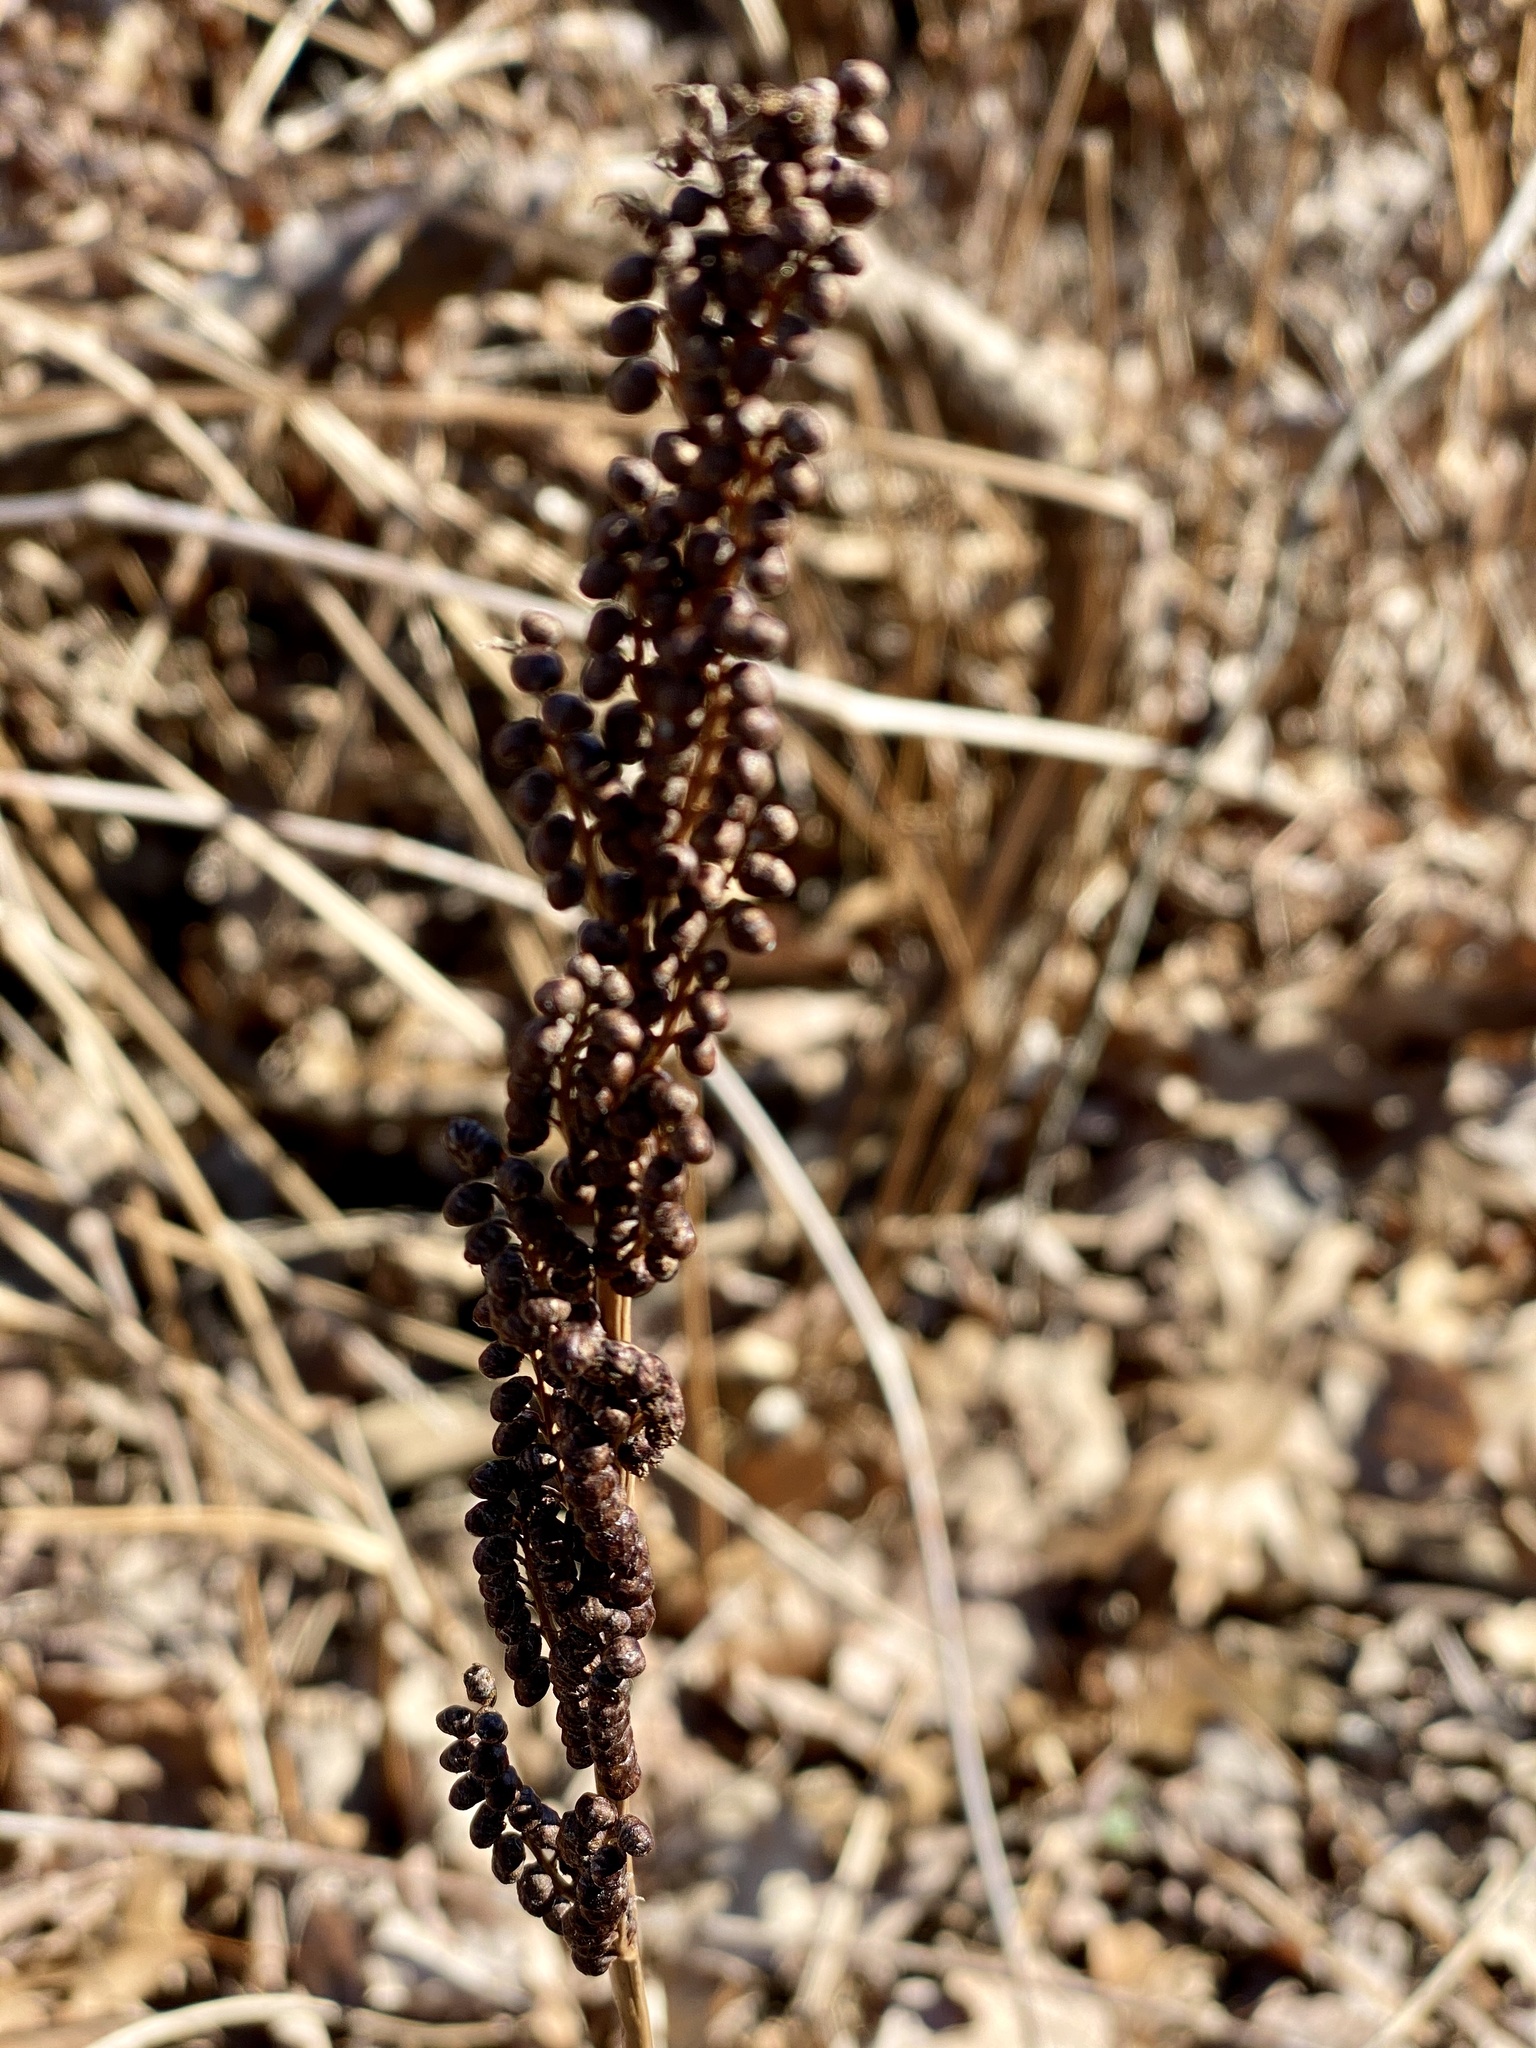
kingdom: Plantae
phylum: Tracheophyta
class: Polypodiopsida
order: Polypodiales
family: Onocleaceae
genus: Onoclea
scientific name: Onoclea sensibilis
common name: Sensitive fern
